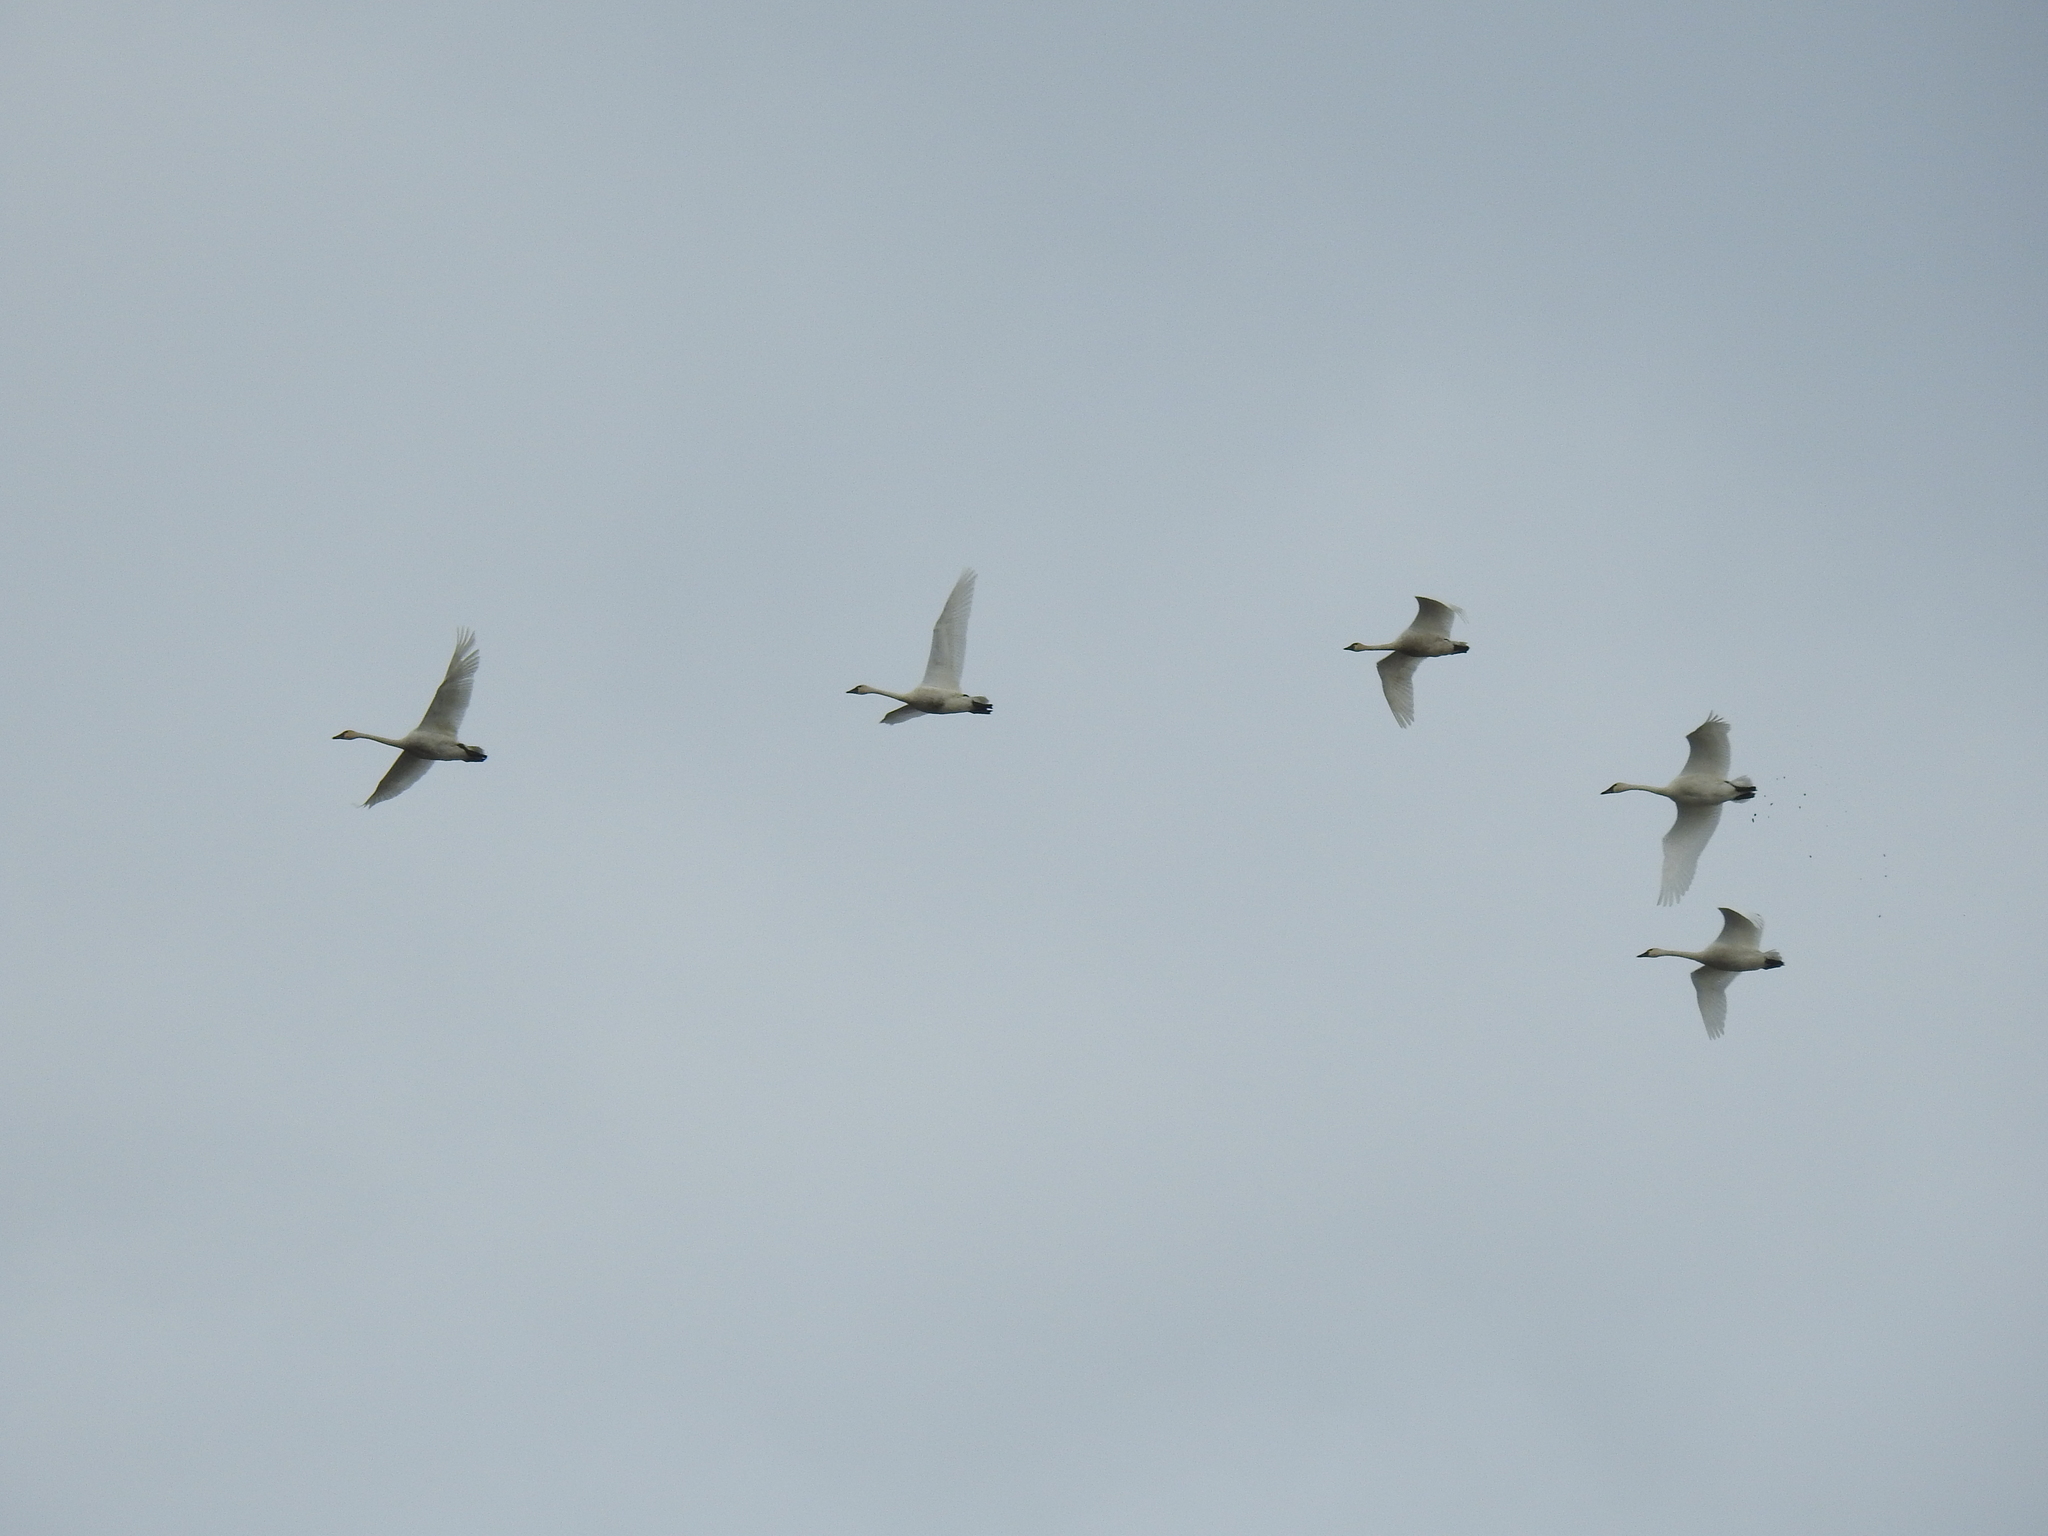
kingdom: Animalia
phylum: Chordata
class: Aves
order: Anseriformes
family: Anatidae
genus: Cygnus
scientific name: Cygnus columbianus
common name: Tundra swan
